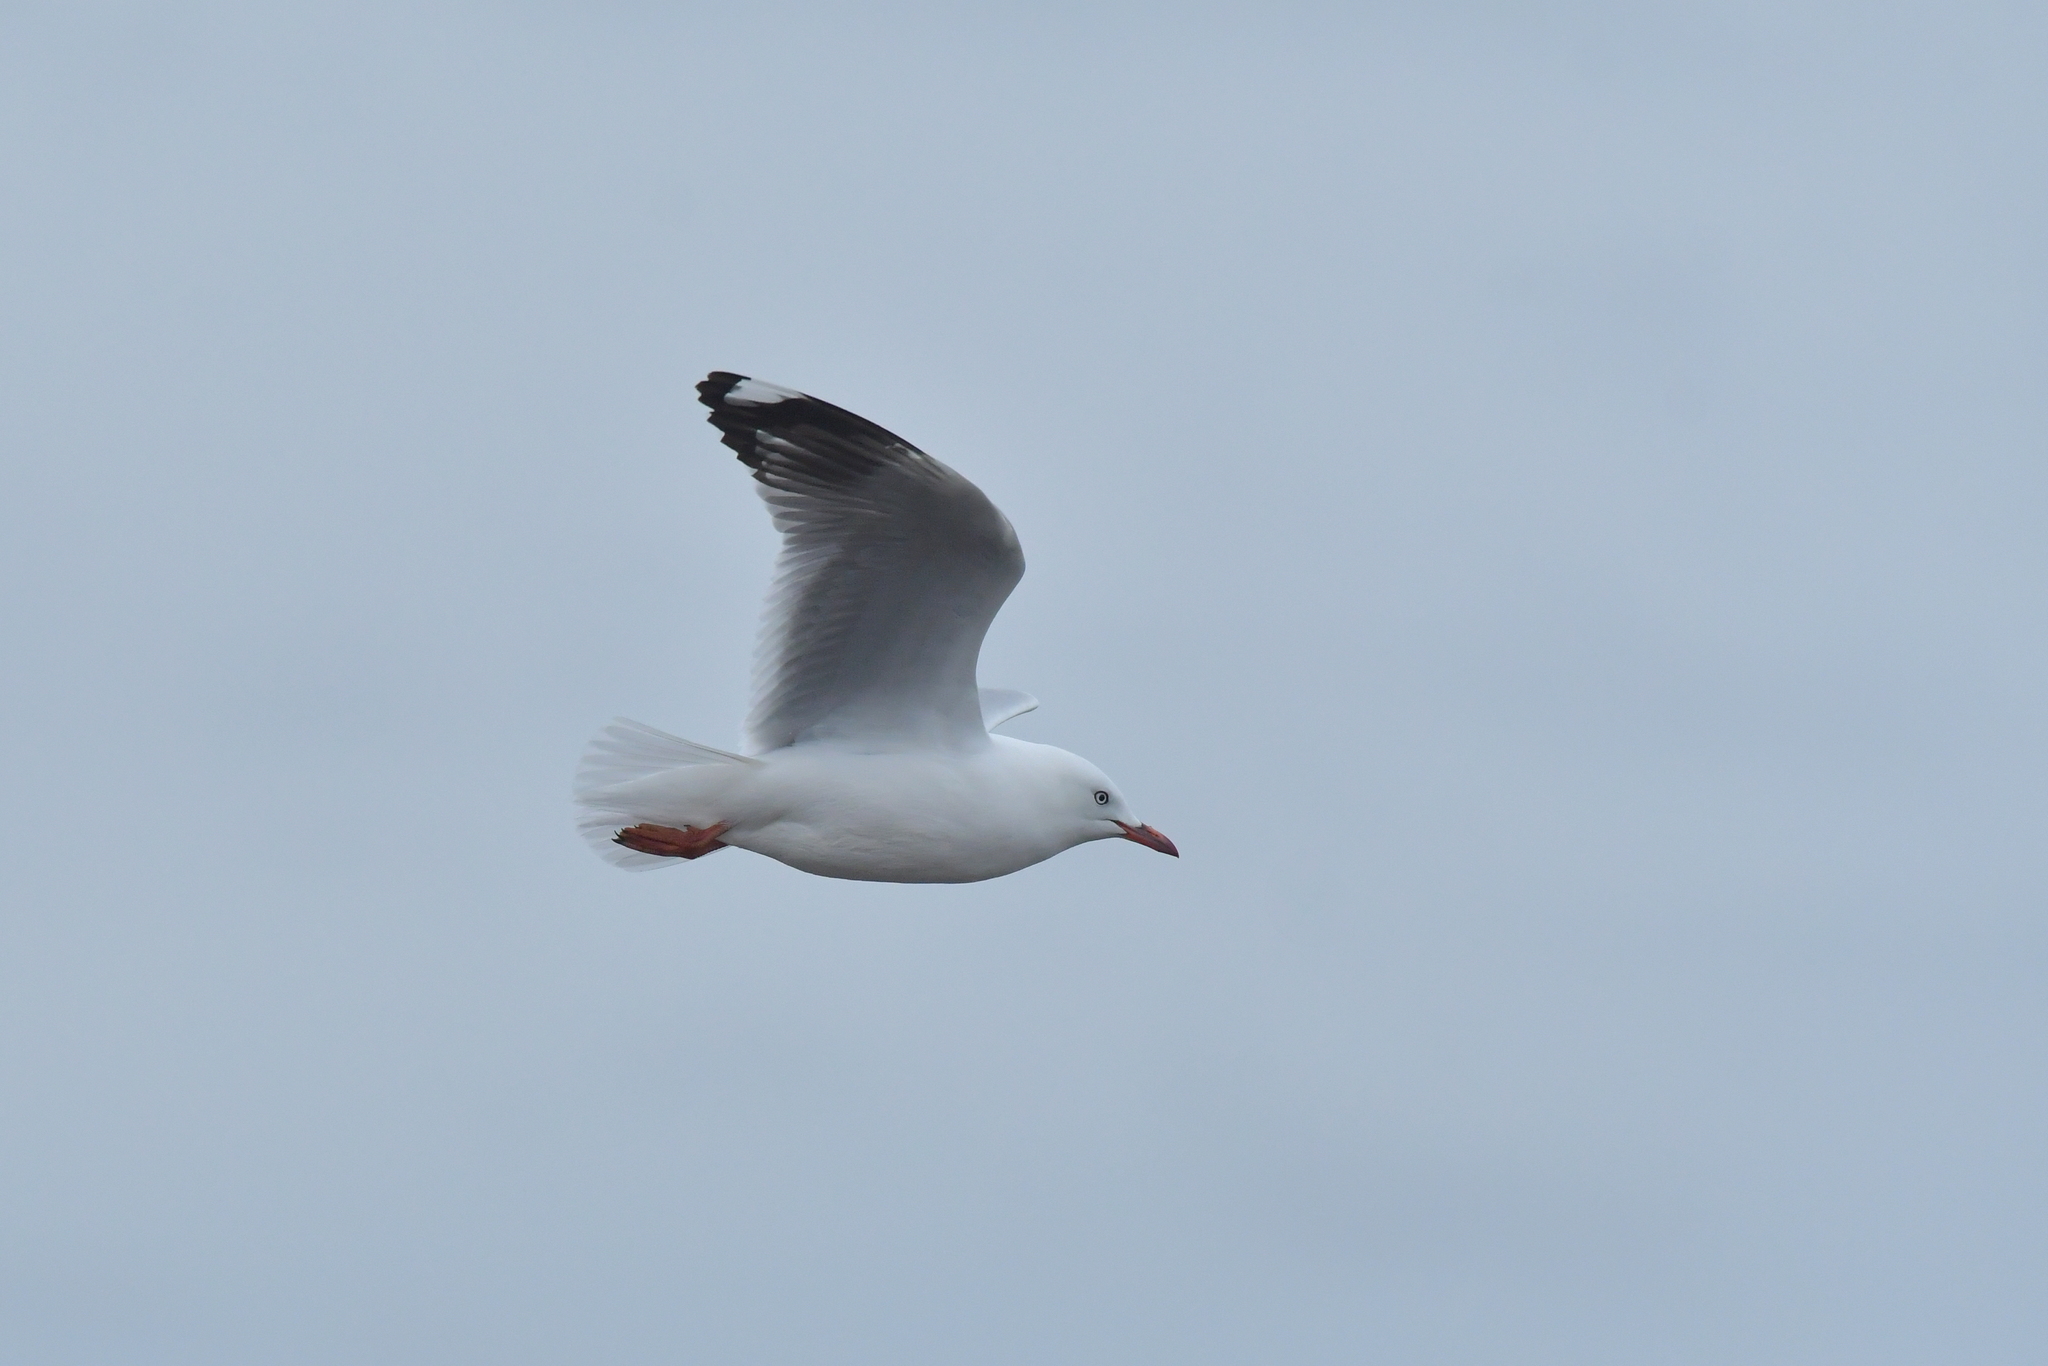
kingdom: Animalia
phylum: Chordata
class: Aves
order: Charadriiformes
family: Laridae
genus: Chroicocephalus
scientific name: Chroicocephalus novaehollandiae
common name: Silver gull
